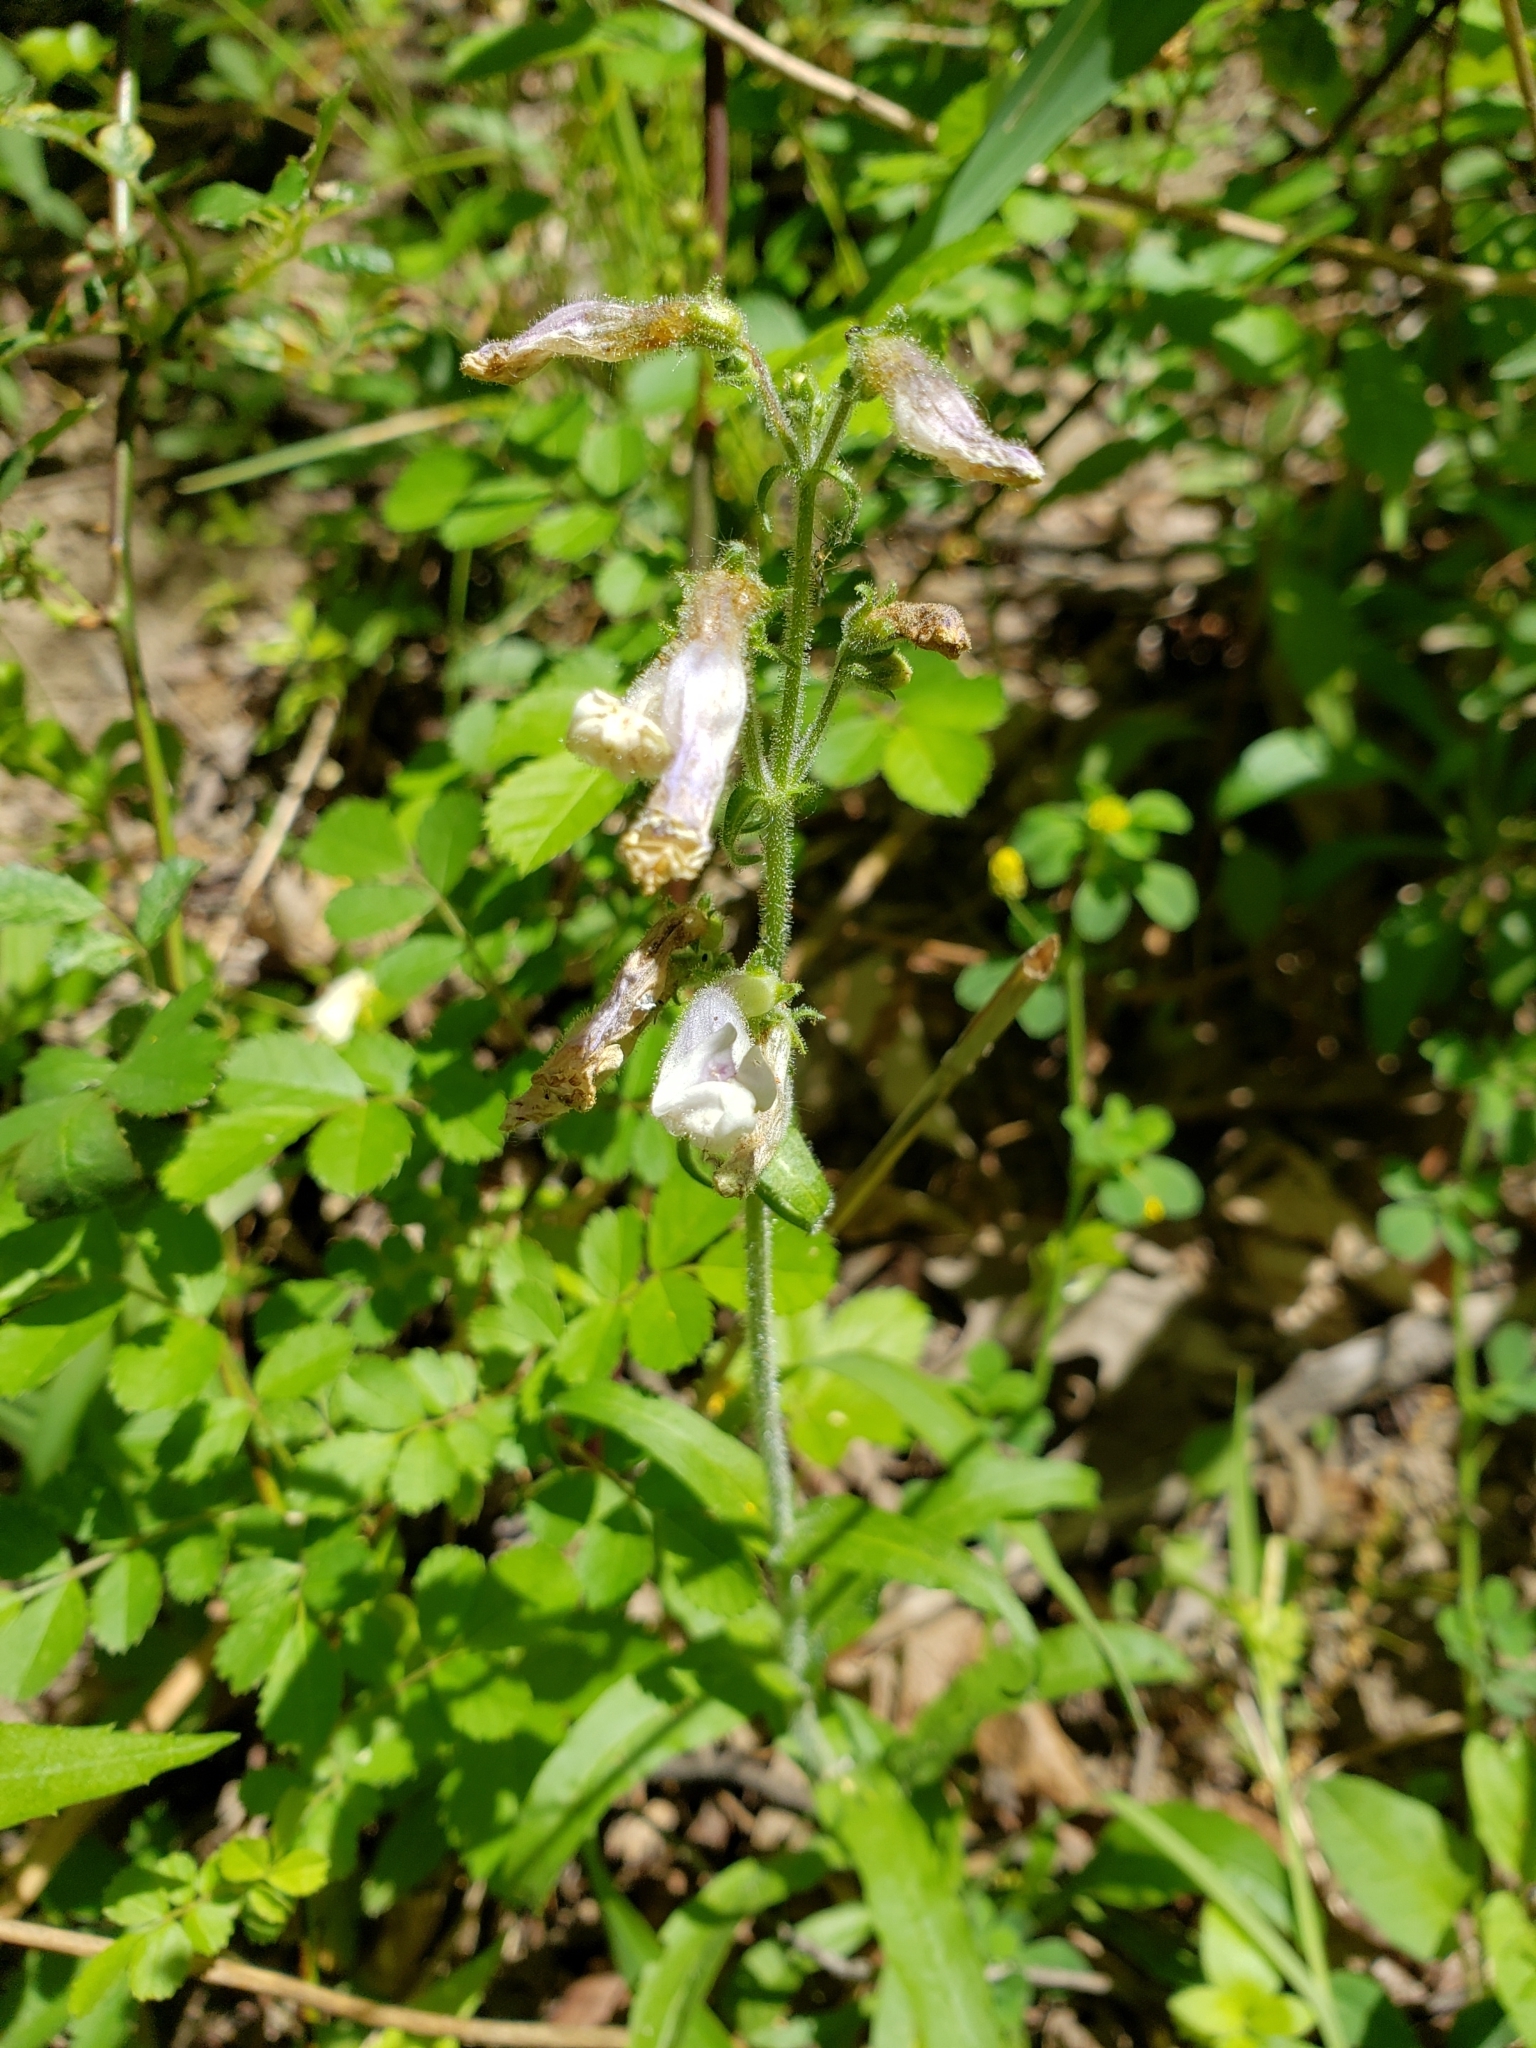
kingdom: Plantae
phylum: Tracheophyta
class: Magnoliopsida
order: Lamiales
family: Plantaginaceae
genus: Penstemon
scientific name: Penstemon hirsutus
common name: Hairy beardtongue
